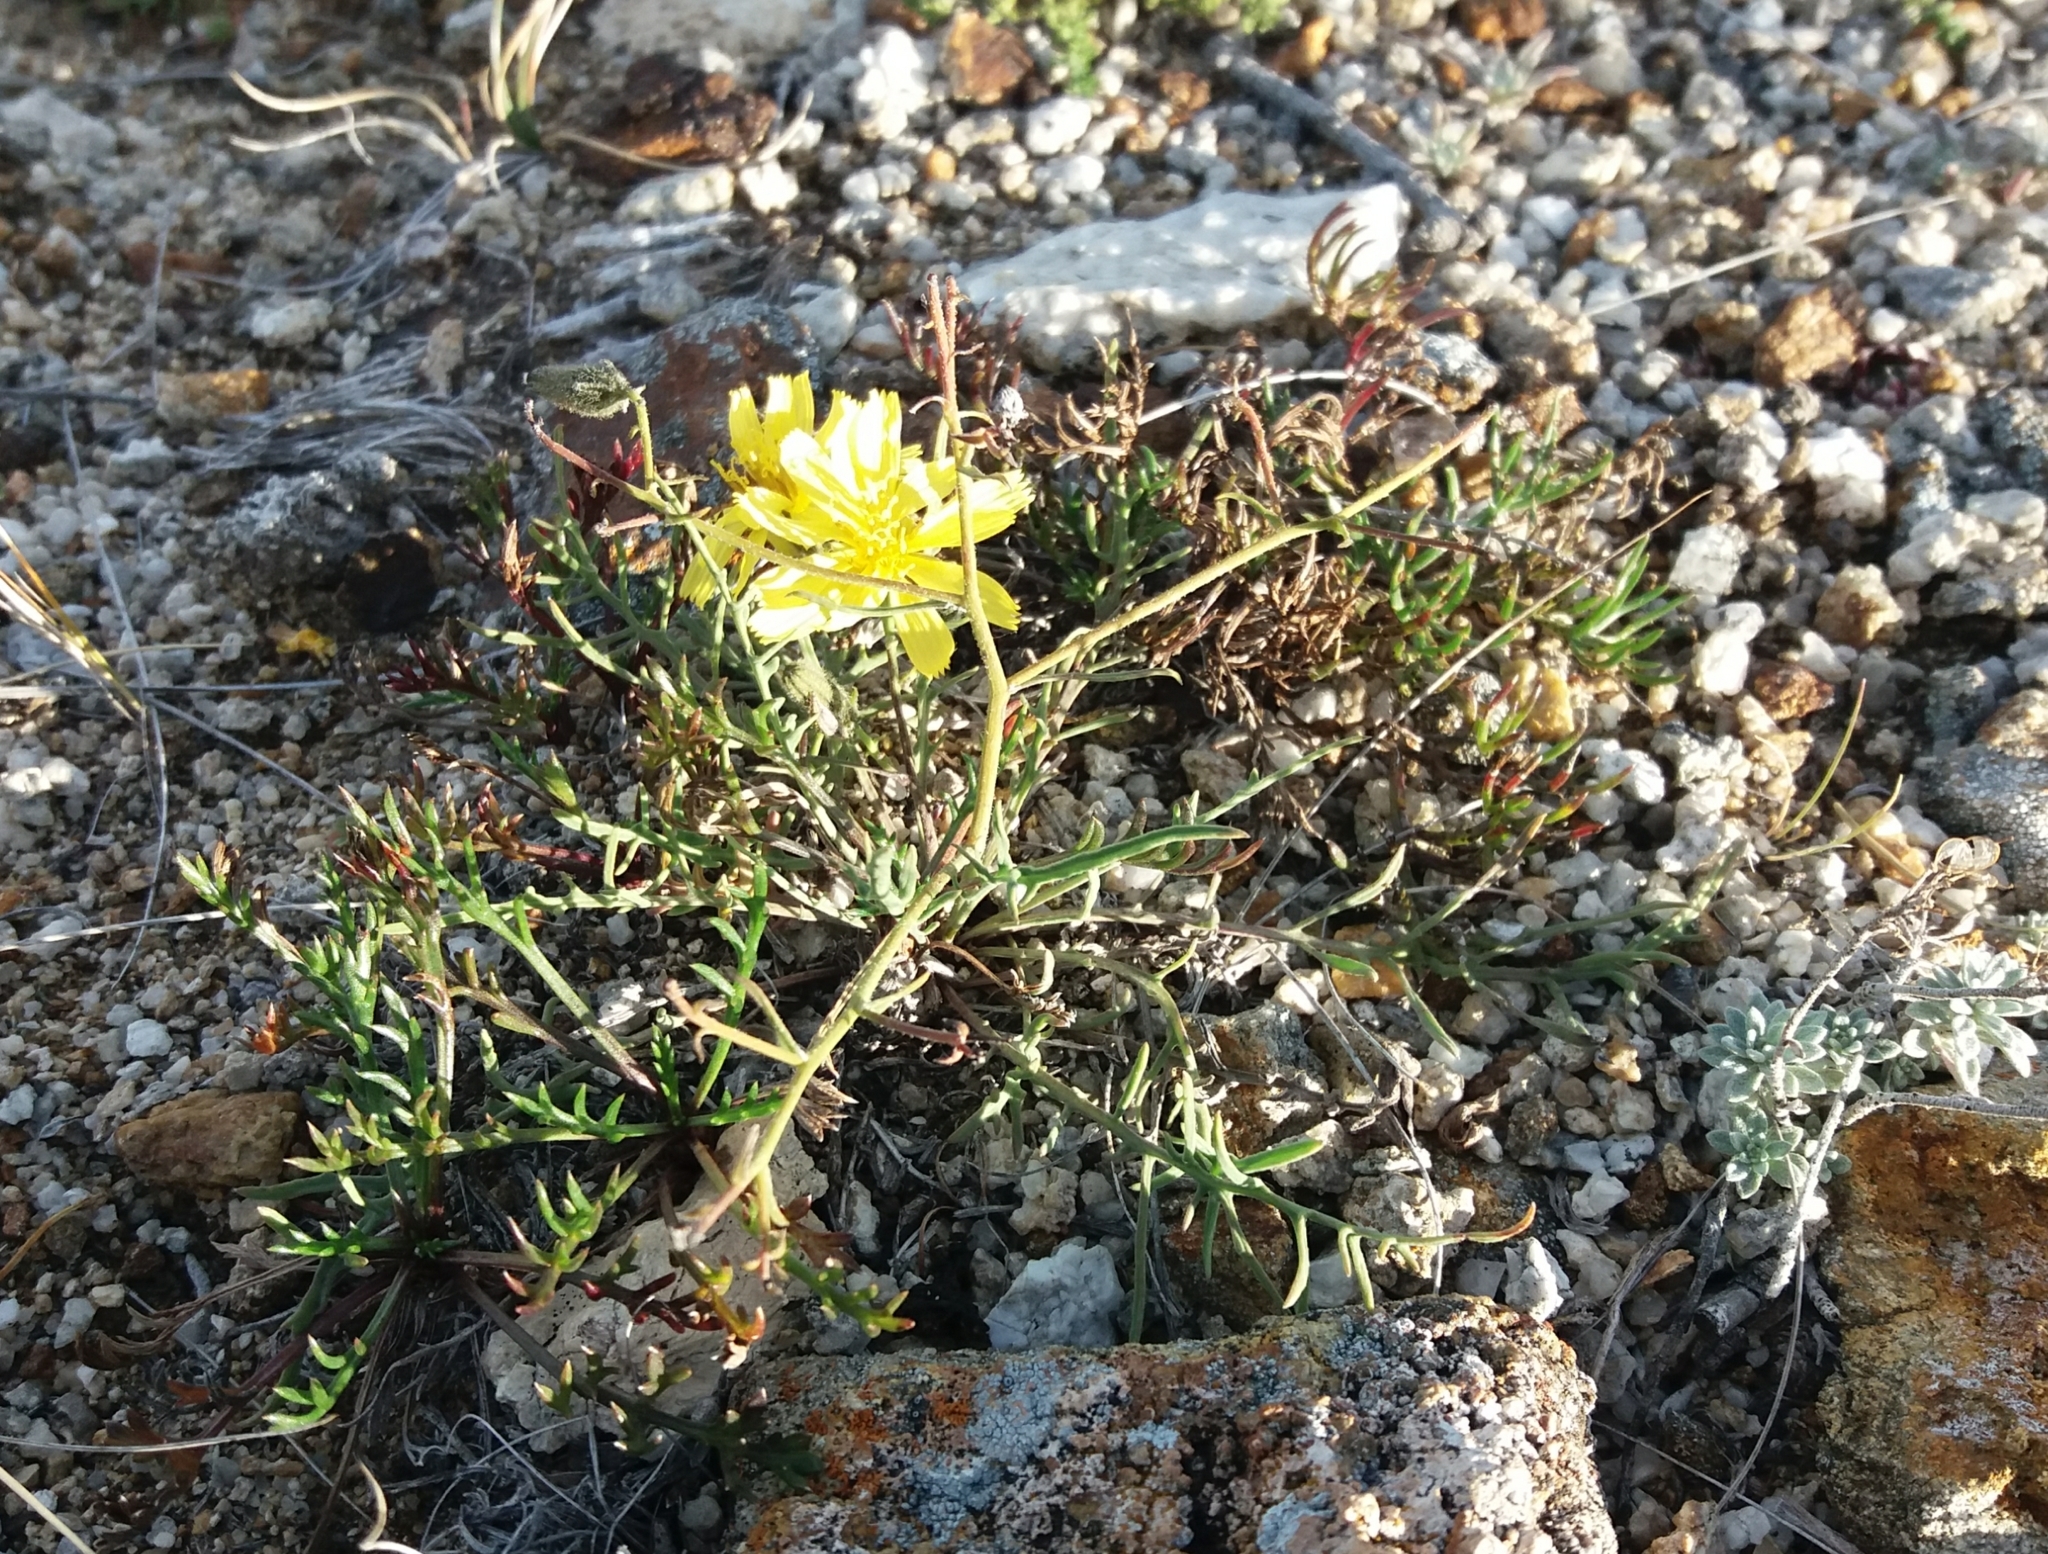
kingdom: Plantae
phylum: Tracheophyta
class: Magnoliopsida
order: Asterales
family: Asteraceae
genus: Crepidiastrum
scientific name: Crepidiastrum tenuifolium
